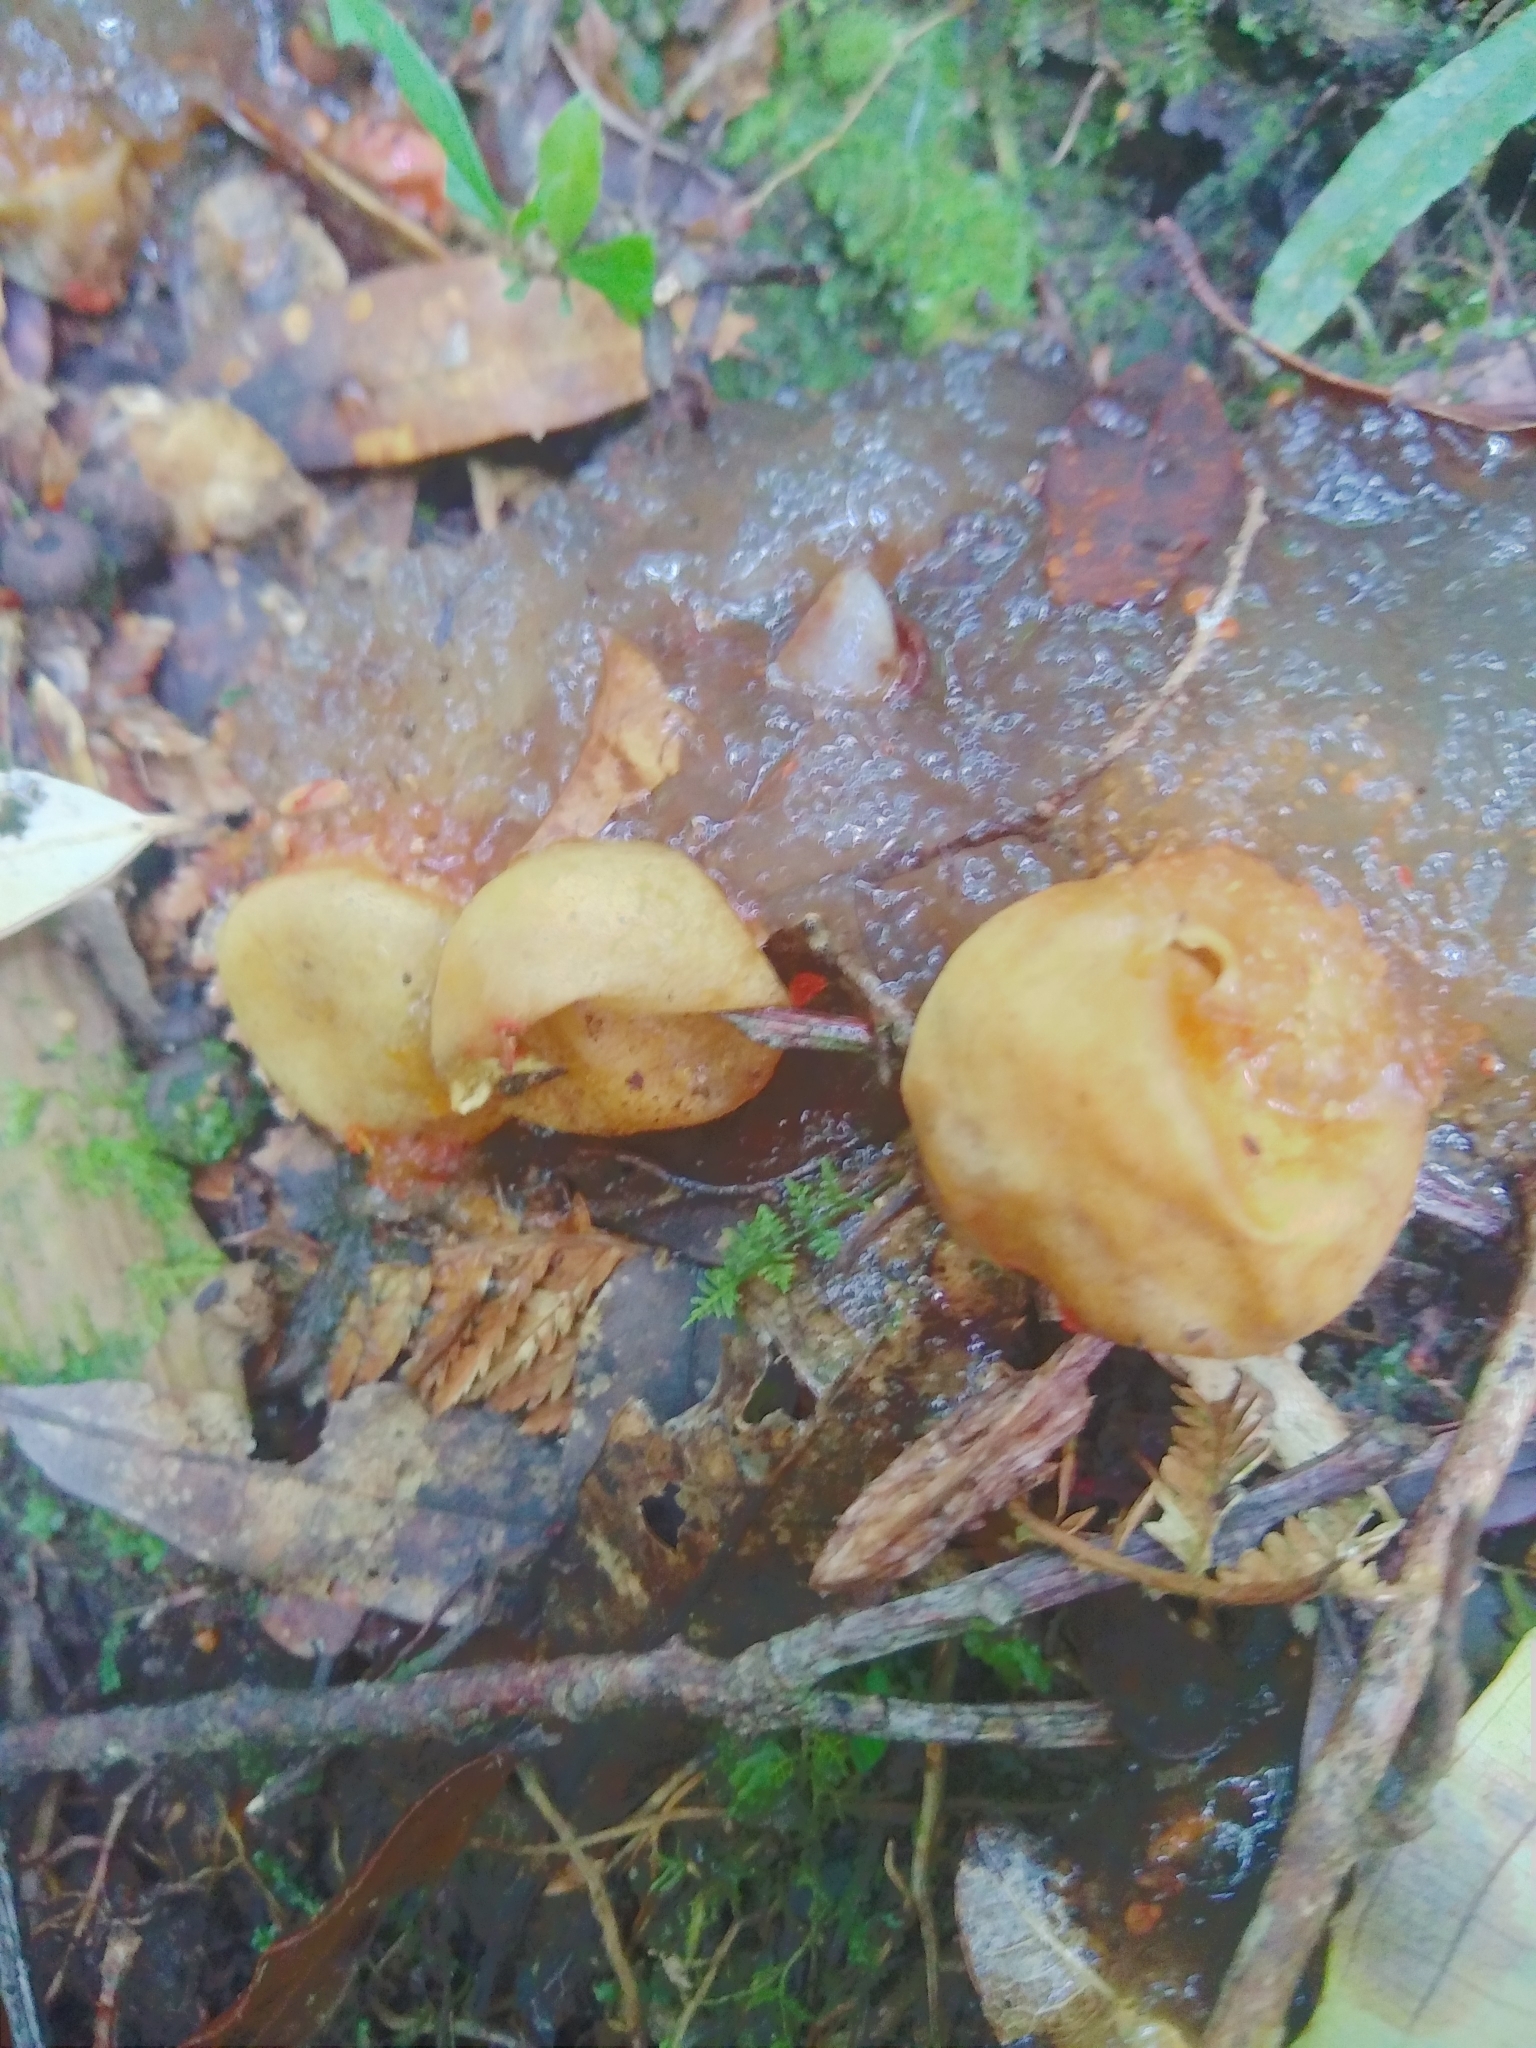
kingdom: Fungi
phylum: Basidiomycota
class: Agaricomycetes
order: Boletales
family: Calostomataceae
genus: Calostoma
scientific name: Calostoma cinnabarinum
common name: Stalked puffball-in-aspic
